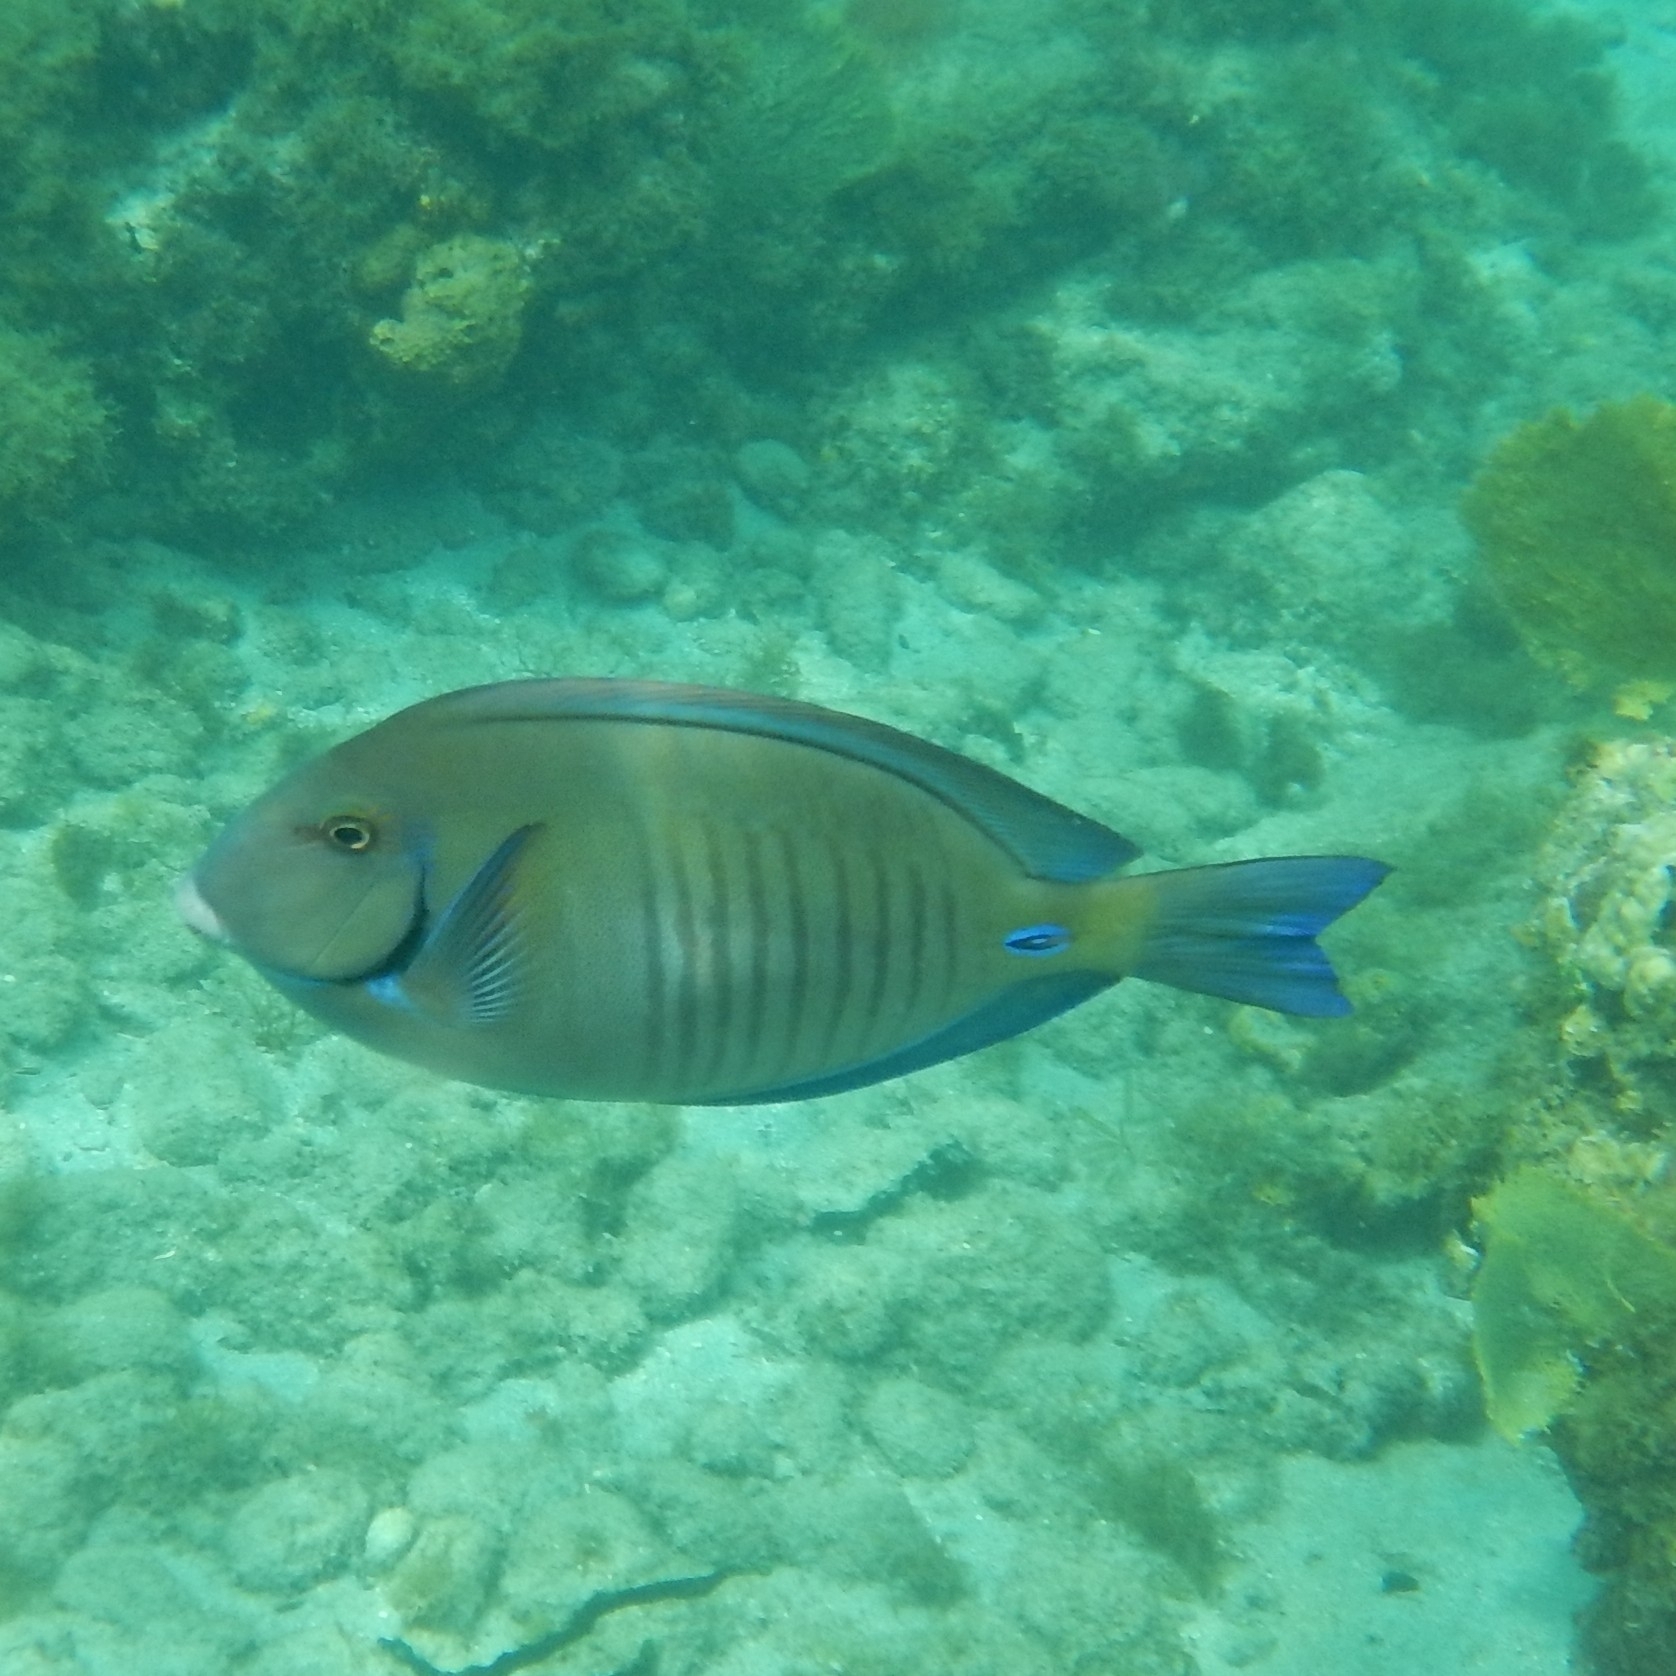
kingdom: Animalia
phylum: Chordata
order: Perciformes
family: Acanthuridae
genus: Acanthurus
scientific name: Acanthurus chirurgus
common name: Doctorfish
